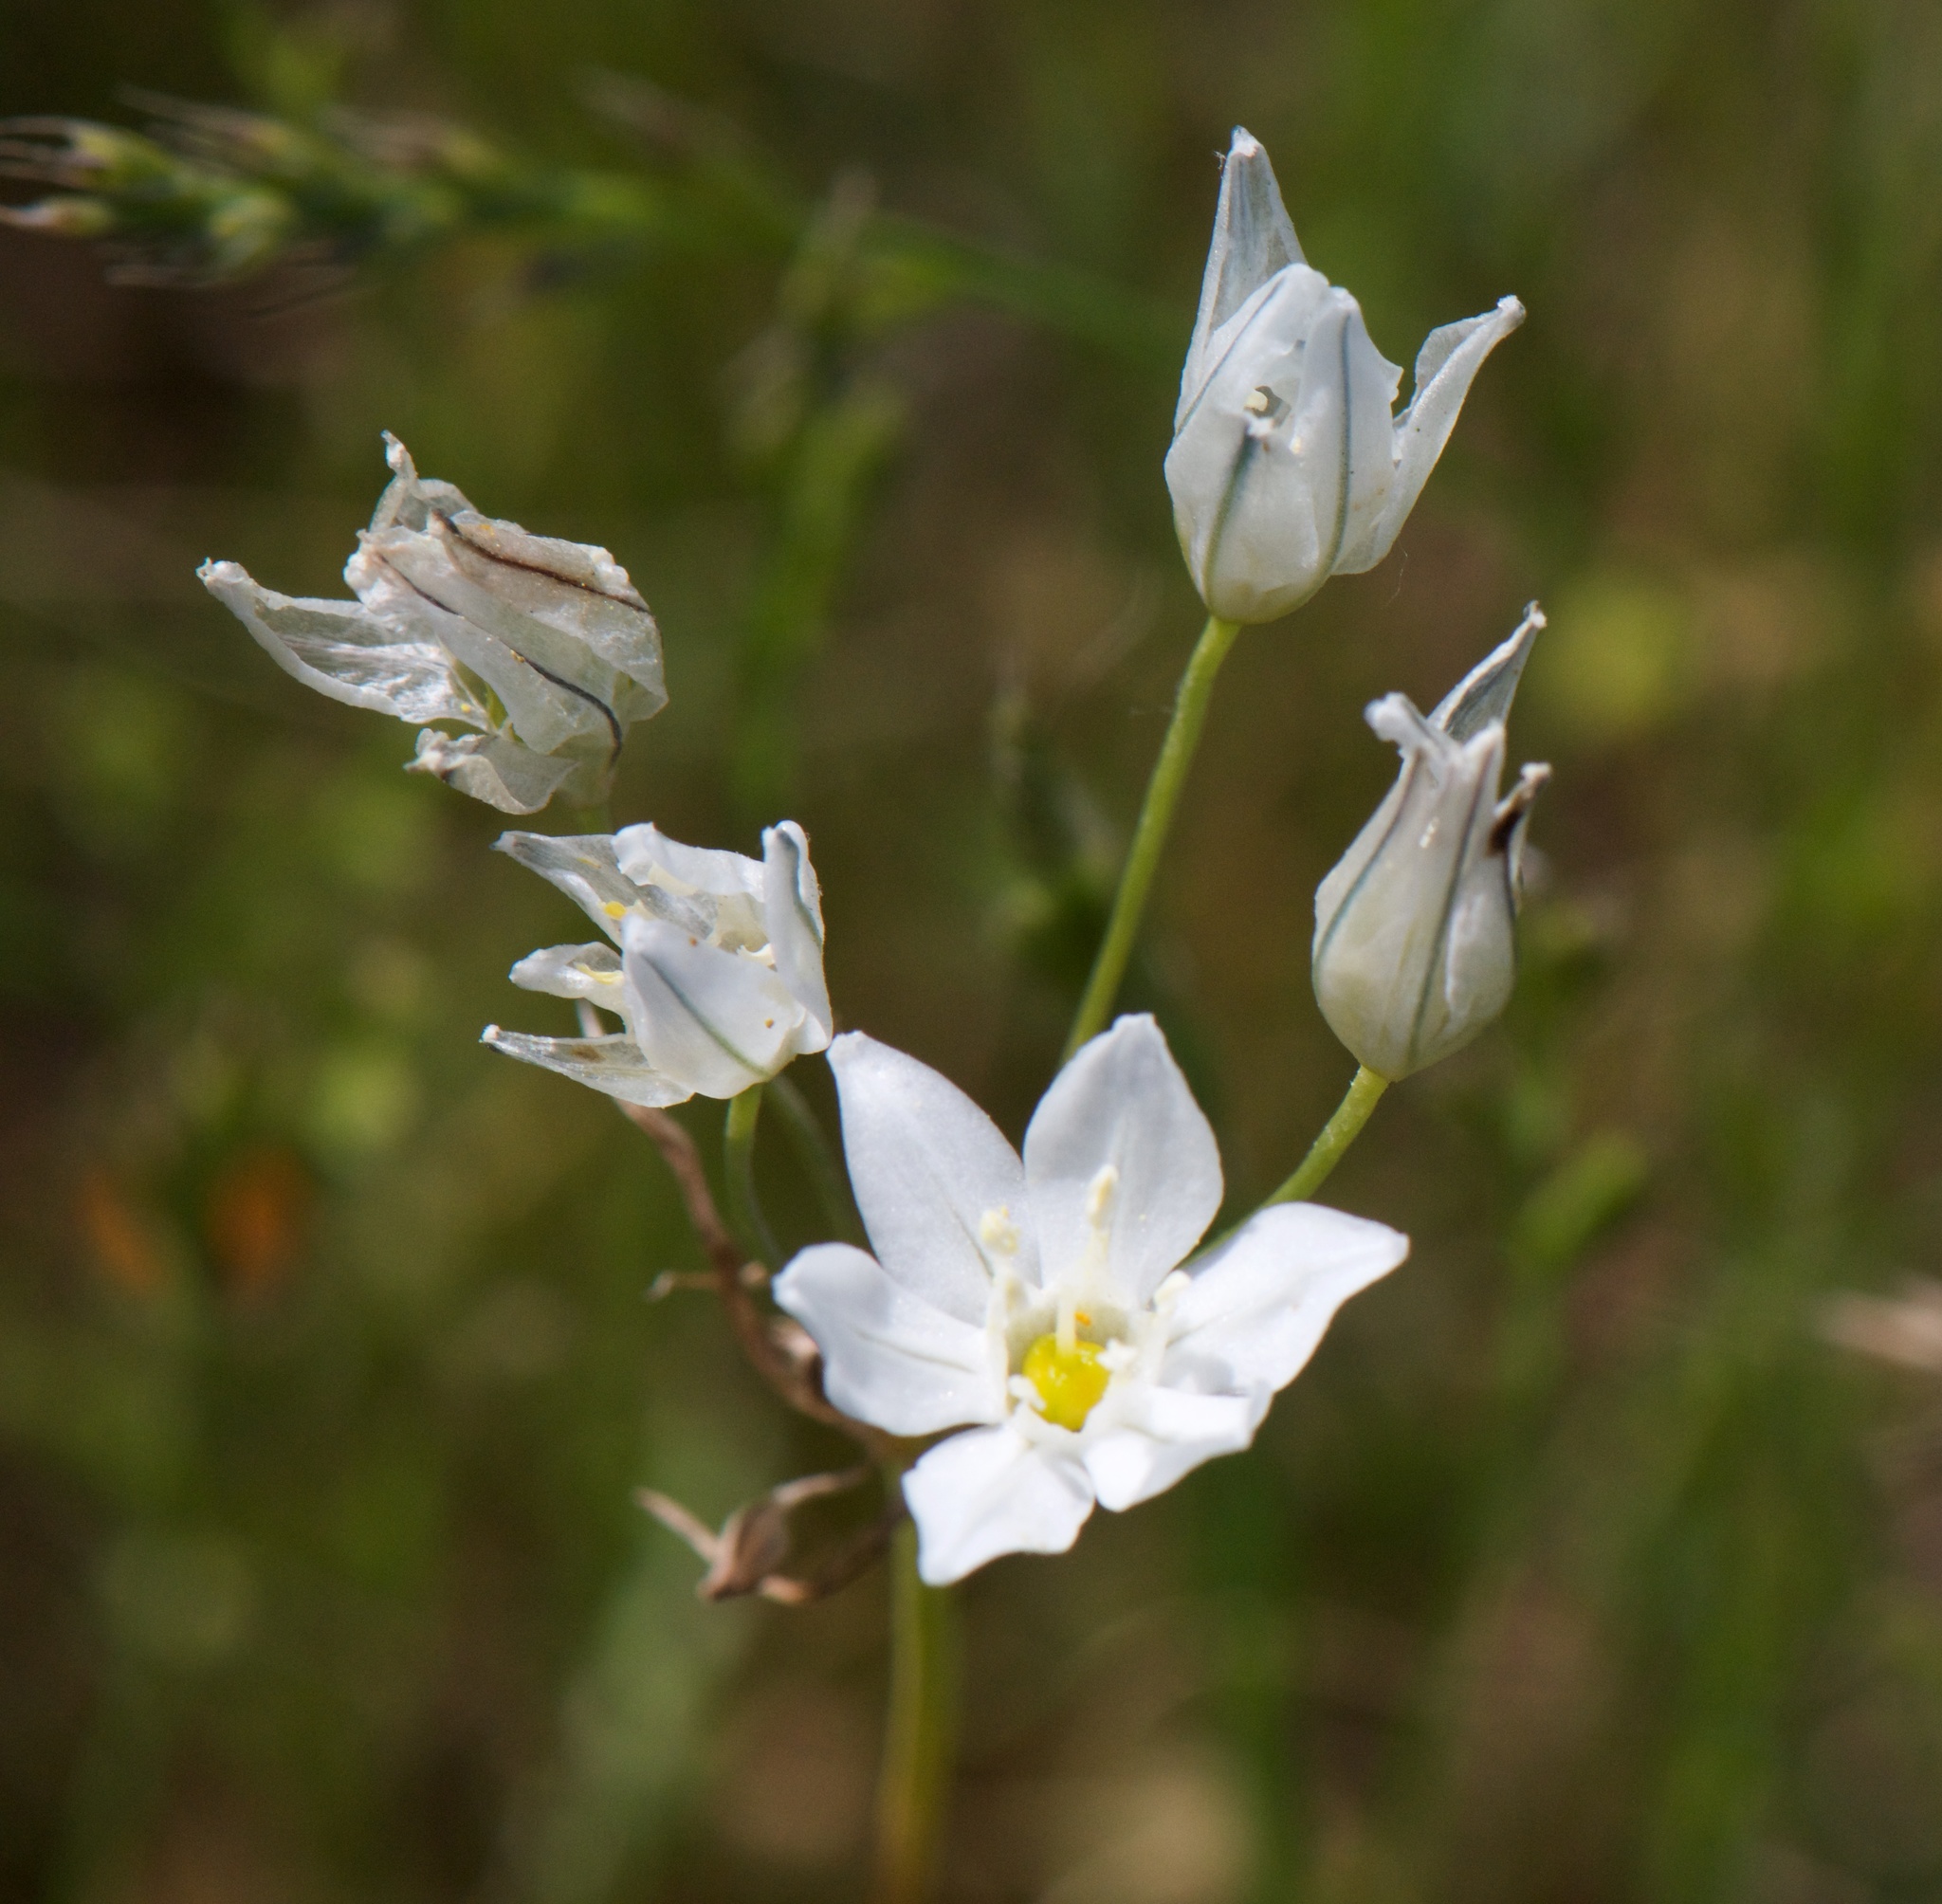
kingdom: Plantae
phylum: Tracheophyta
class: Liliopsida
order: Asparagales
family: Asparagaceae
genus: Triteleia
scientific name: Triteleia hyacinthina
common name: White brodiaea
